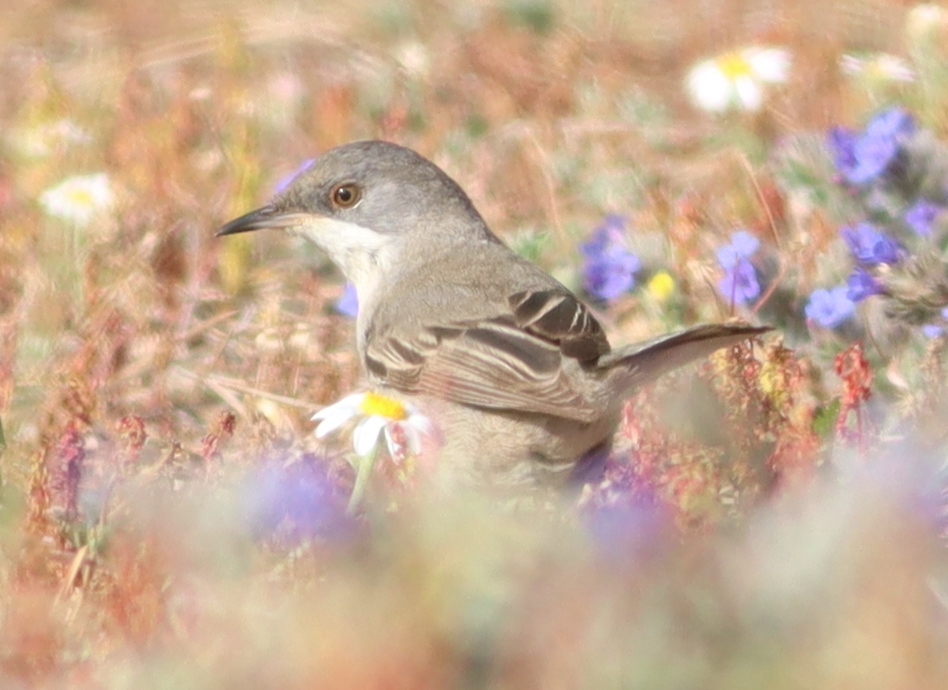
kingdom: Animalia
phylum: Chordata
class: Aves
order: Passeriformes
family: Sylviidae
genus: Sylvia
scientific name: Sylvia ruppeli
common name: Rüppell's warbler
